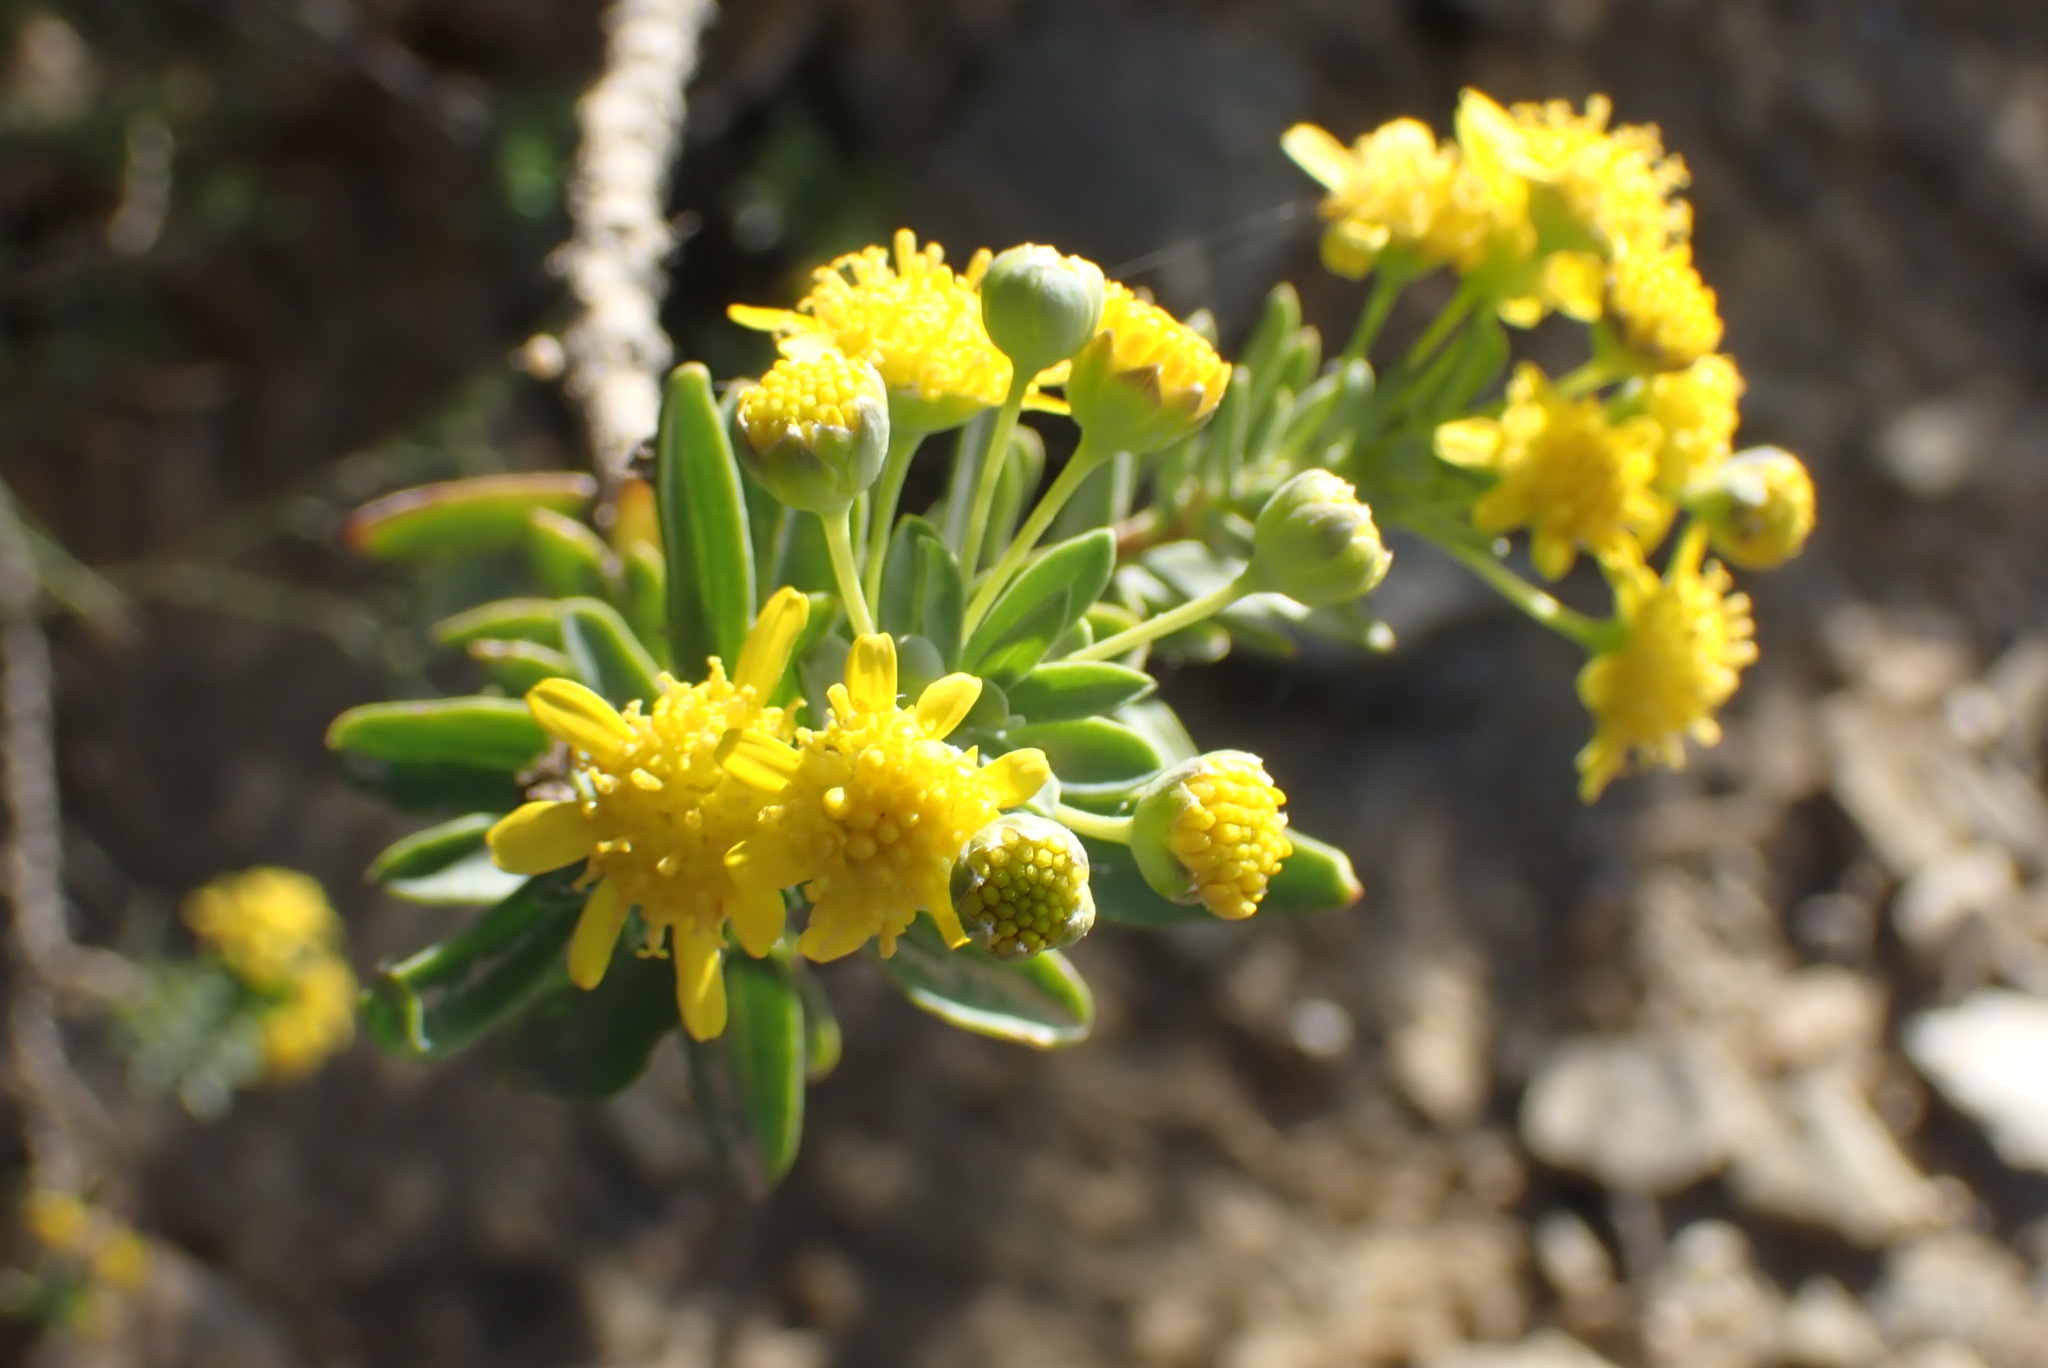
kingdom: Plantae
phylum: Tracheophyta
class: Magnoliopsida
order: Asterales
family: Asteraceae
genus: Euryops
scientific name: Euryops lateriflorus
